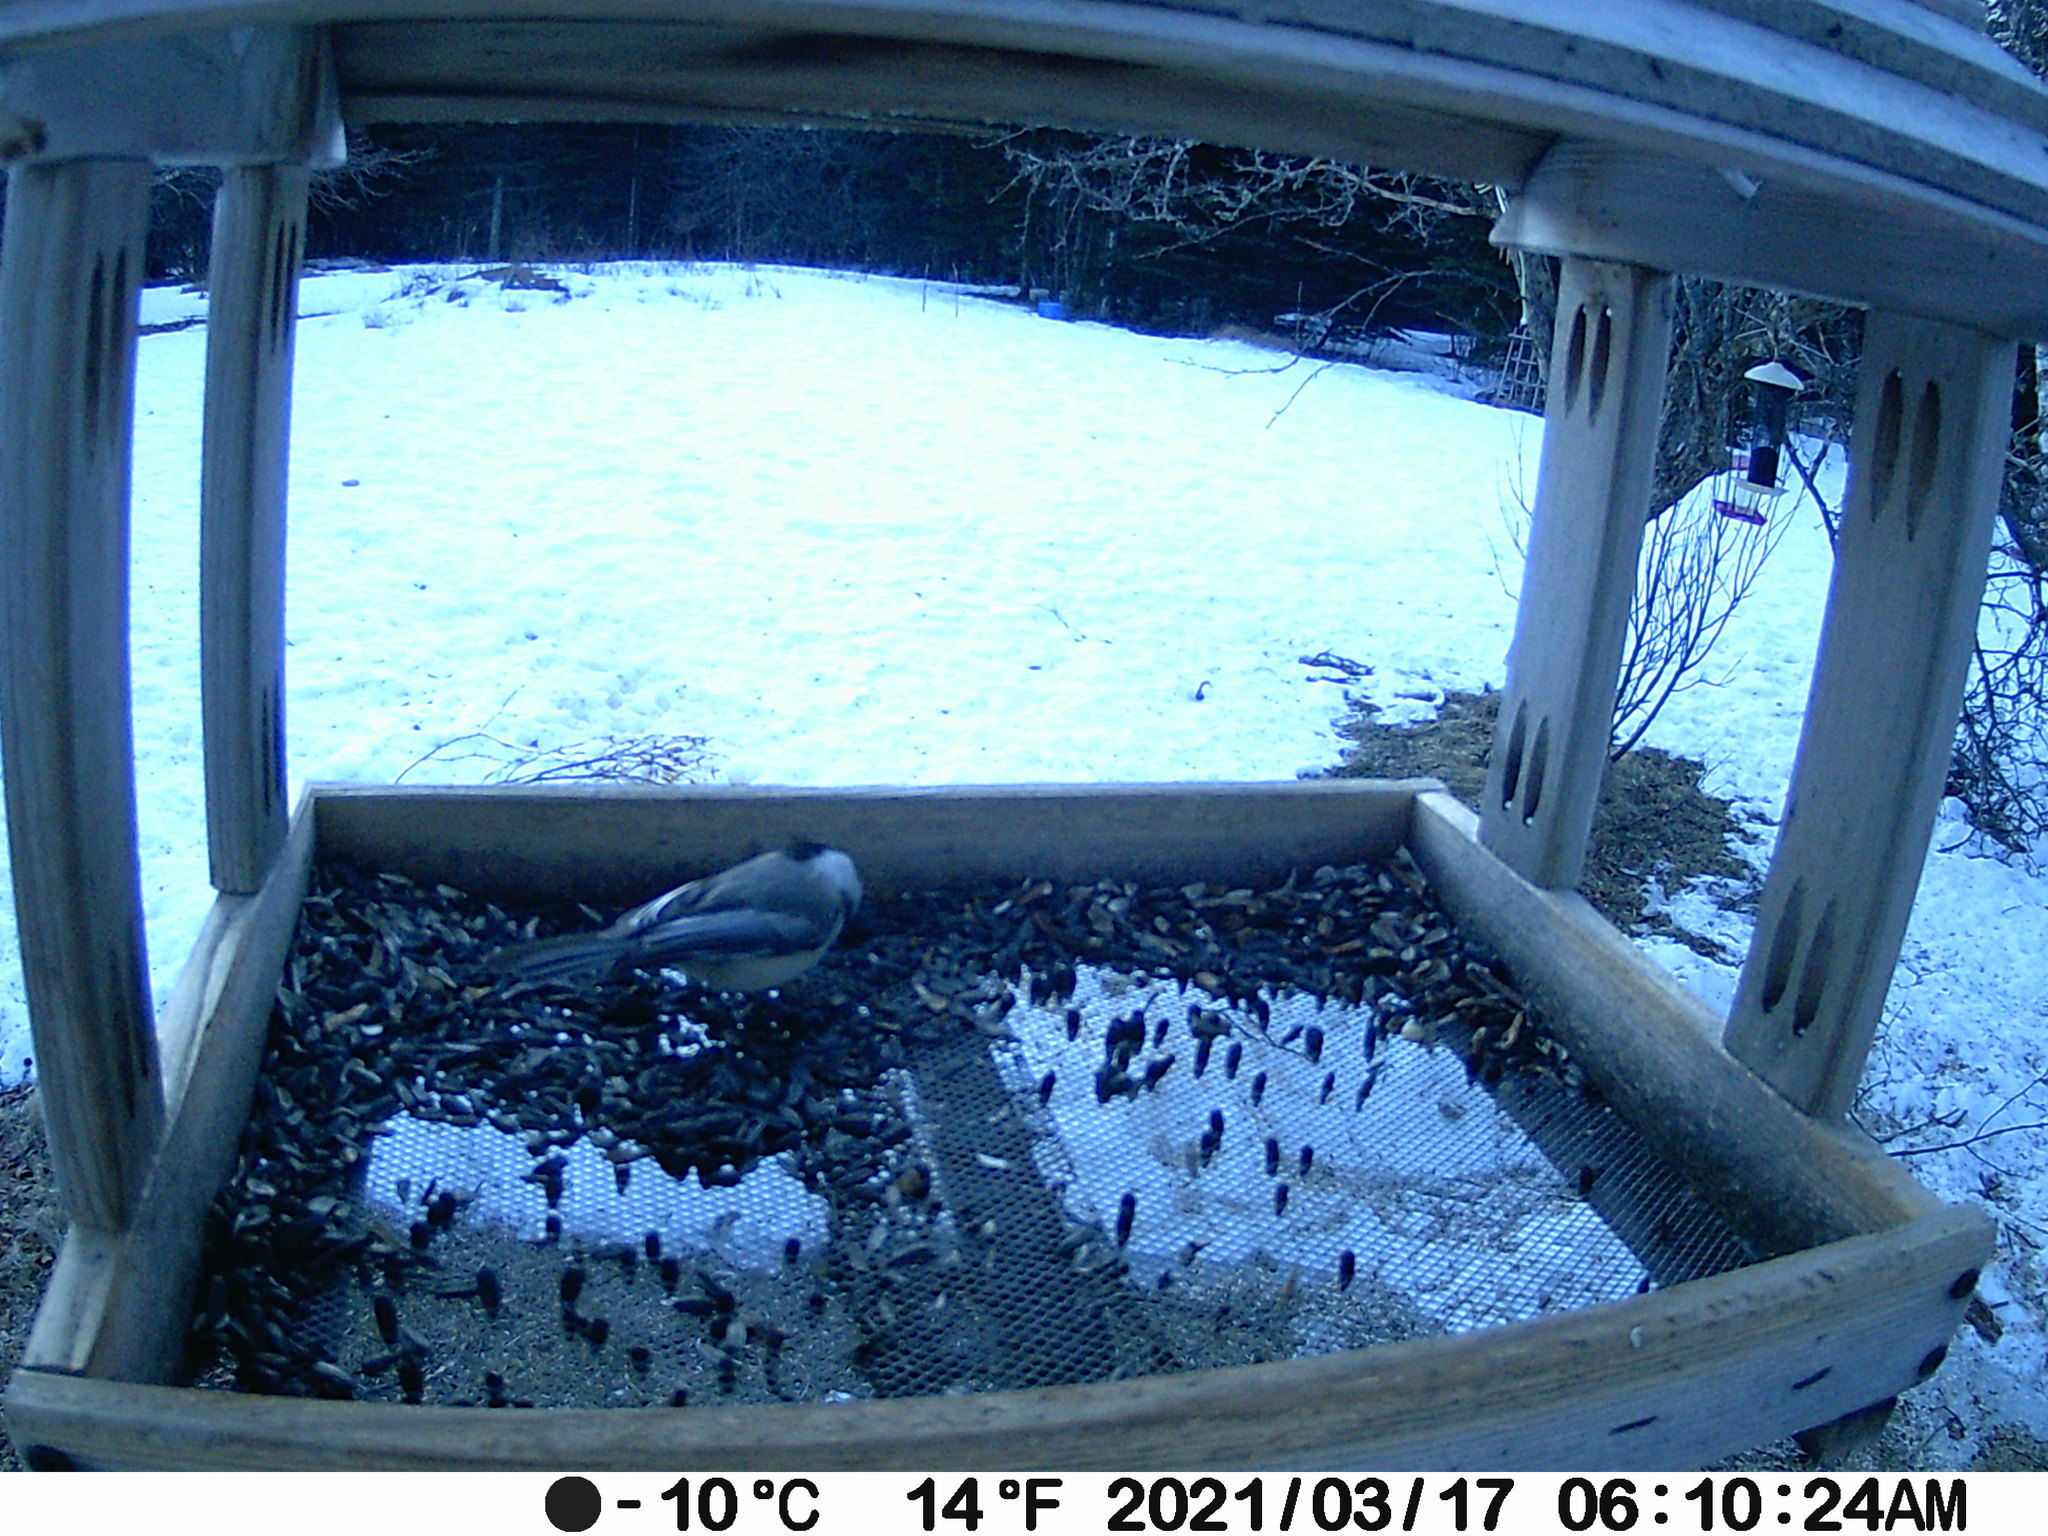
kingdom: Animalia
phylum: Chordata
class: Aves
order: Passeriformes
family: Paridae
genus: Poecile
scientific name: Poecile atricapillus
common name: Black-capped chickadee
